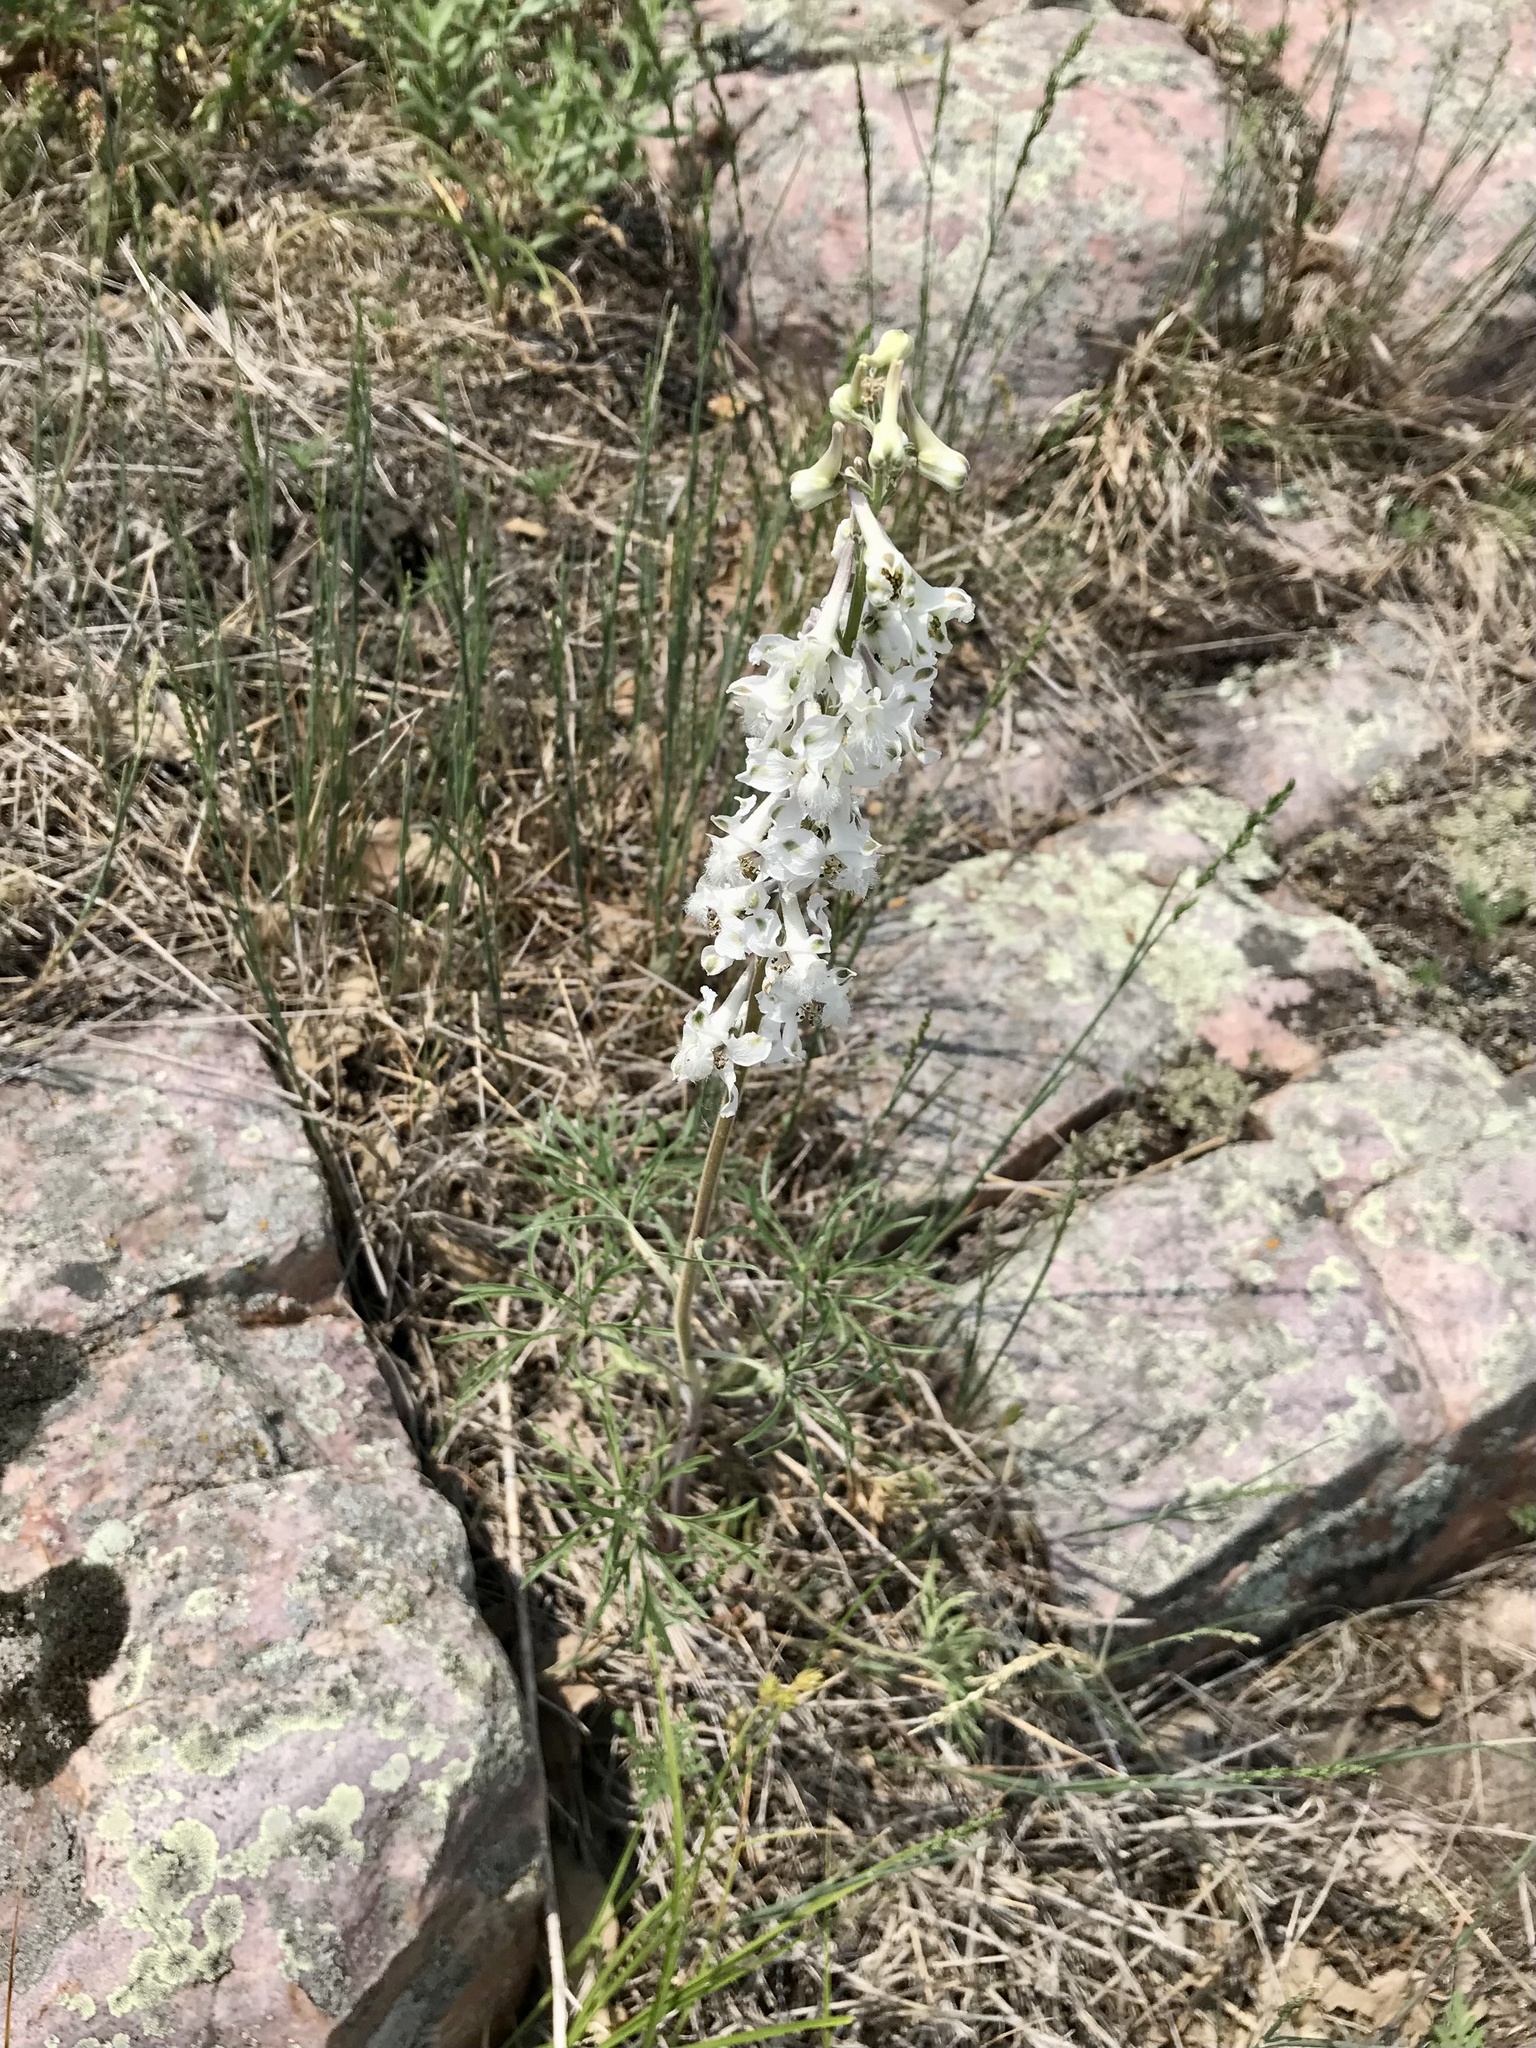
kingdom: Plantae
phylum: Tracheophyta
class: Magnoliopsida
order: Ranunculales
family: Ranunculaceae
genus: Delphinium
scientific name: Delphinium carolinianum
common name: Carolina larkspur
